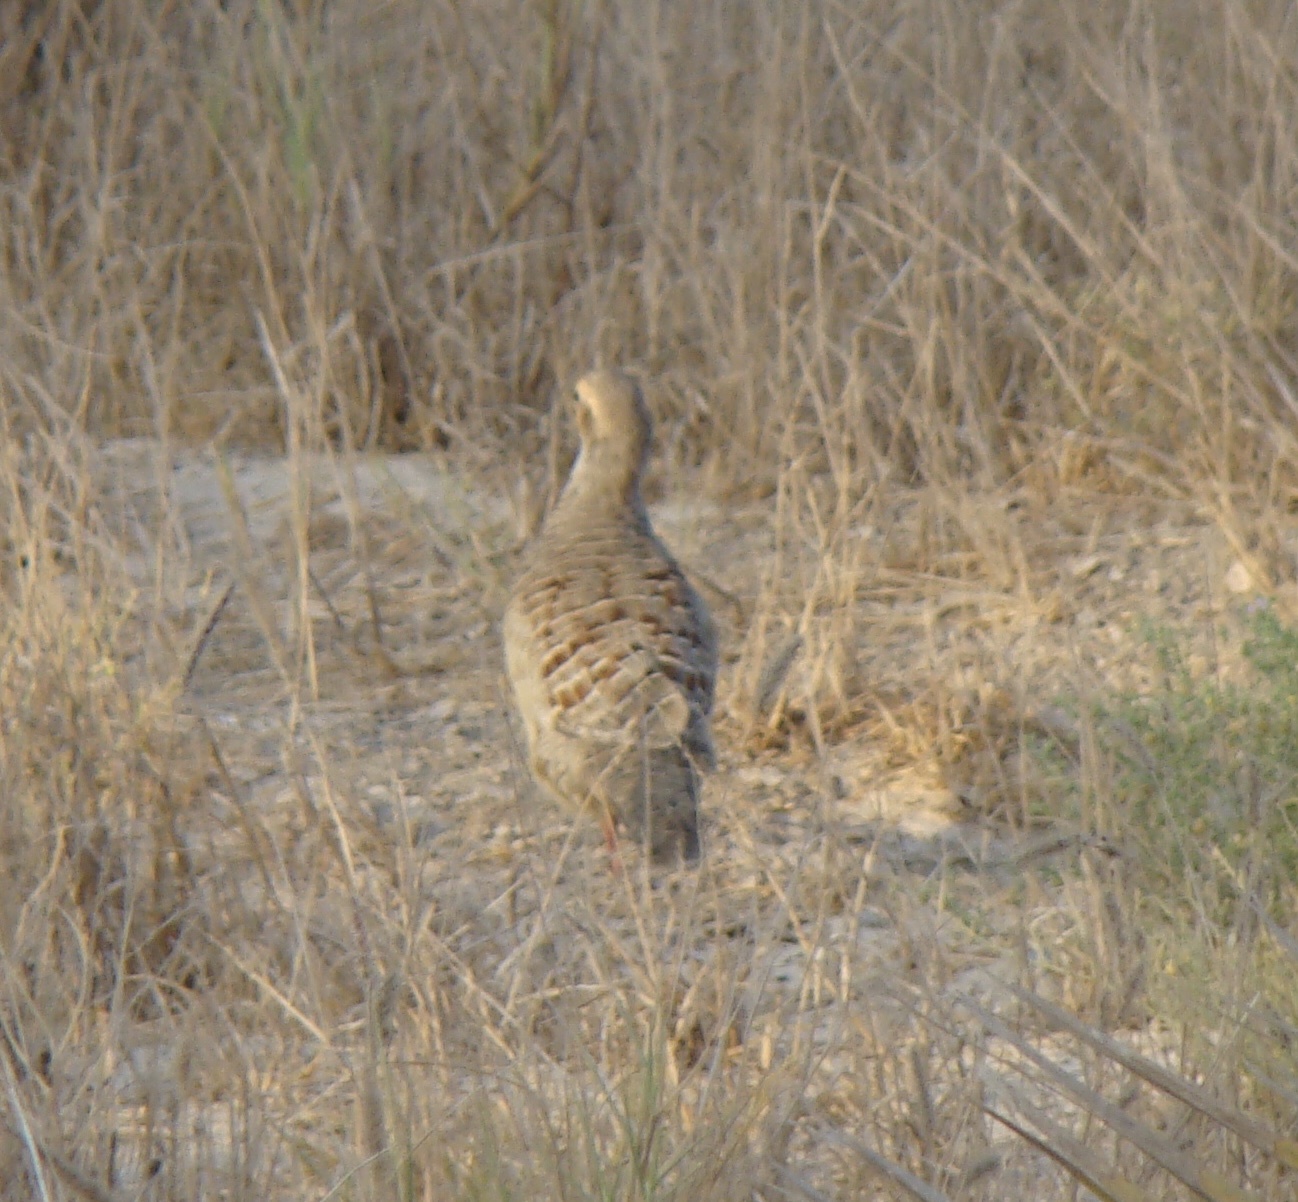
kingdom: Animalia
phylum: Chordata
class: Aves
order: Galliformes
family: Phasianidae
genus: Ortygornis
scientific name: Ortygornis pondicerianus
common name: Grey francolin
